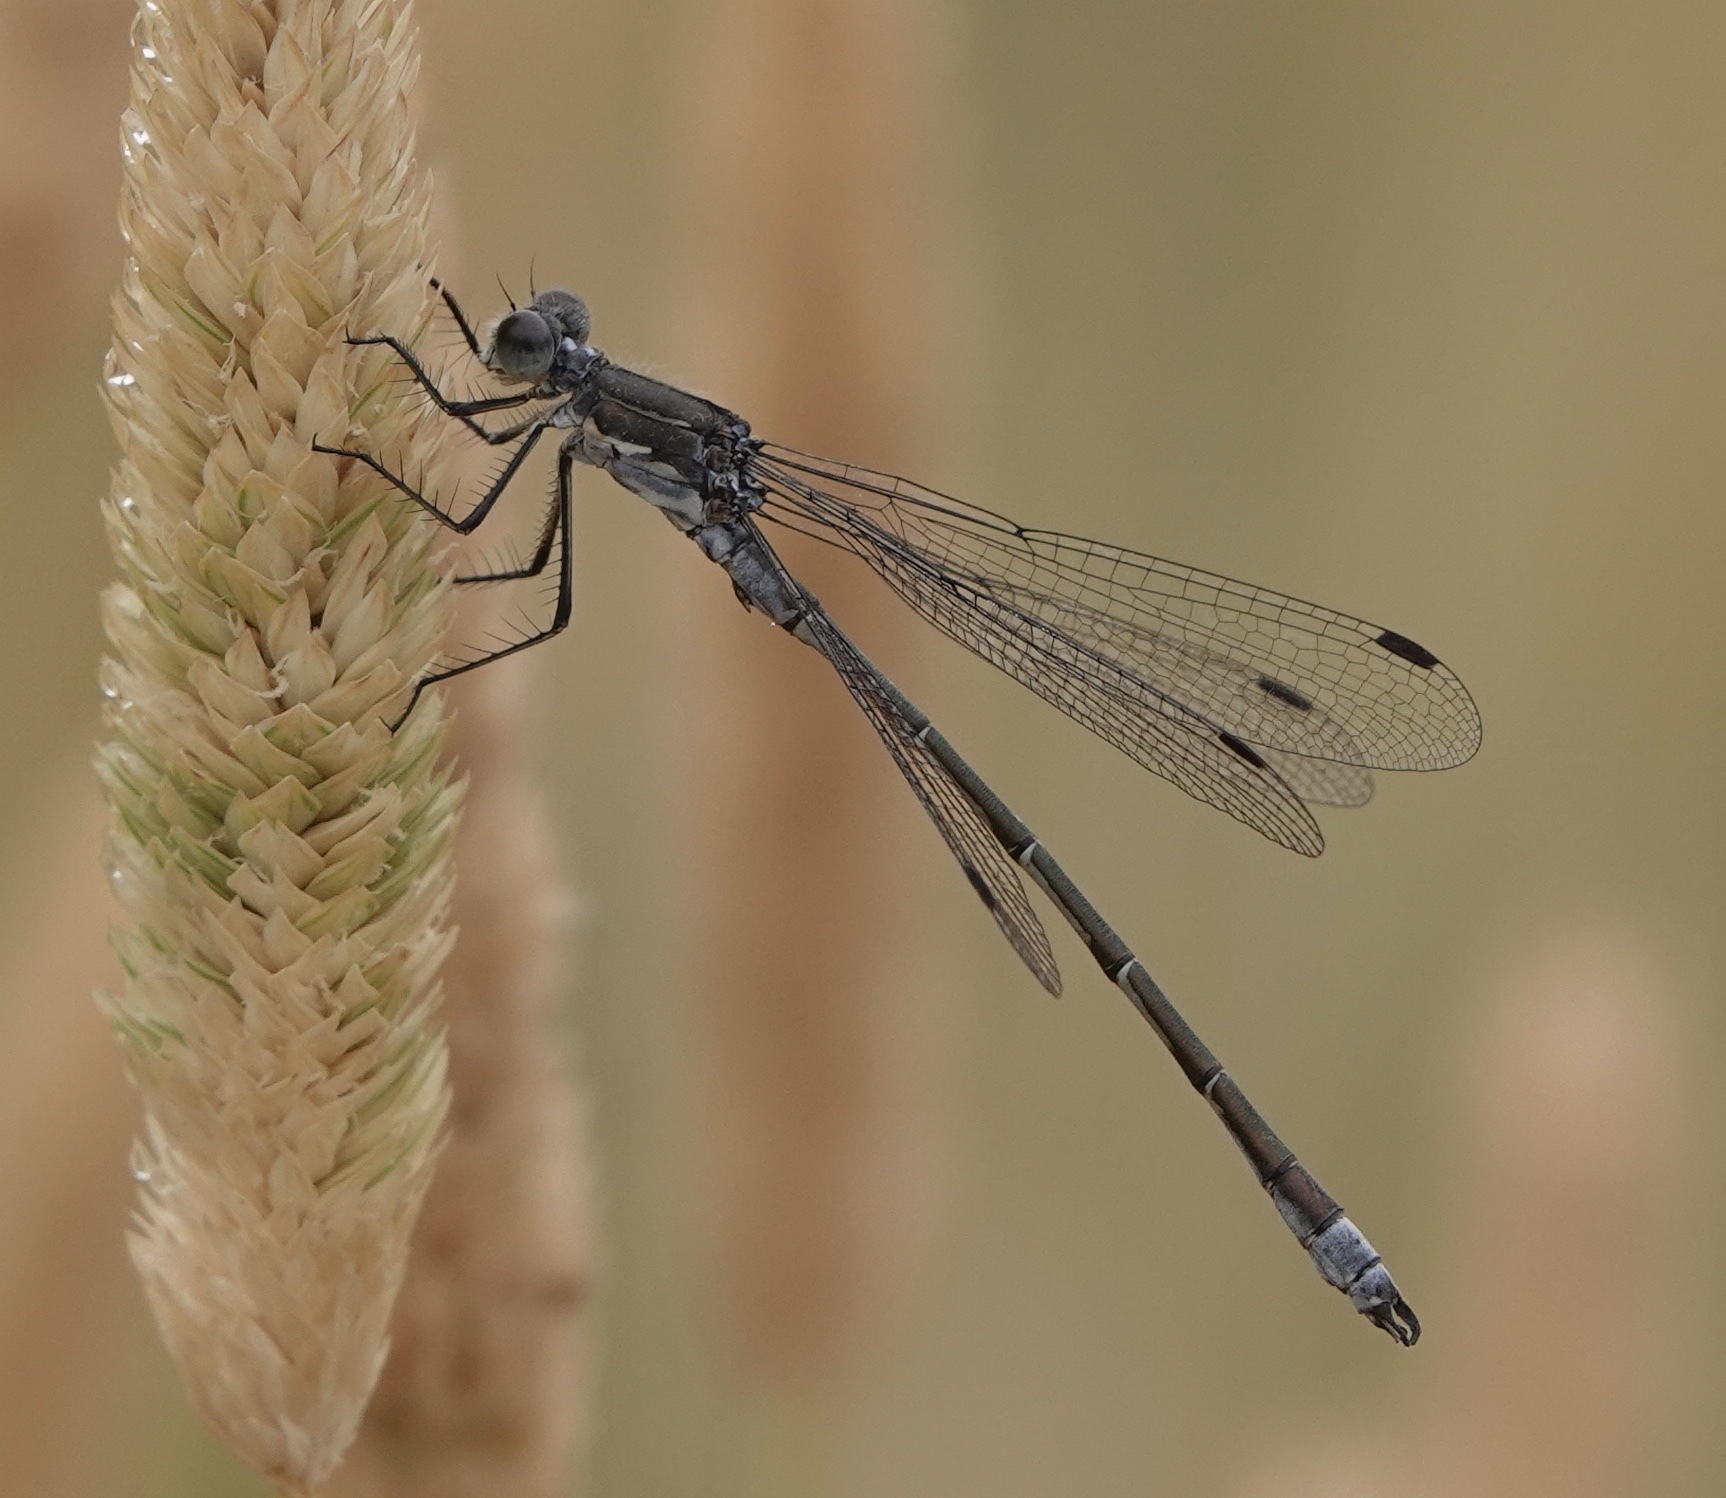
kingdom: Animalia
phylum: Arthropoda
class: Insecta
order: Odonata
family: Lestidae
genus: Lestes
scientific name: Lestes stultus
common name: Black spreadwing
